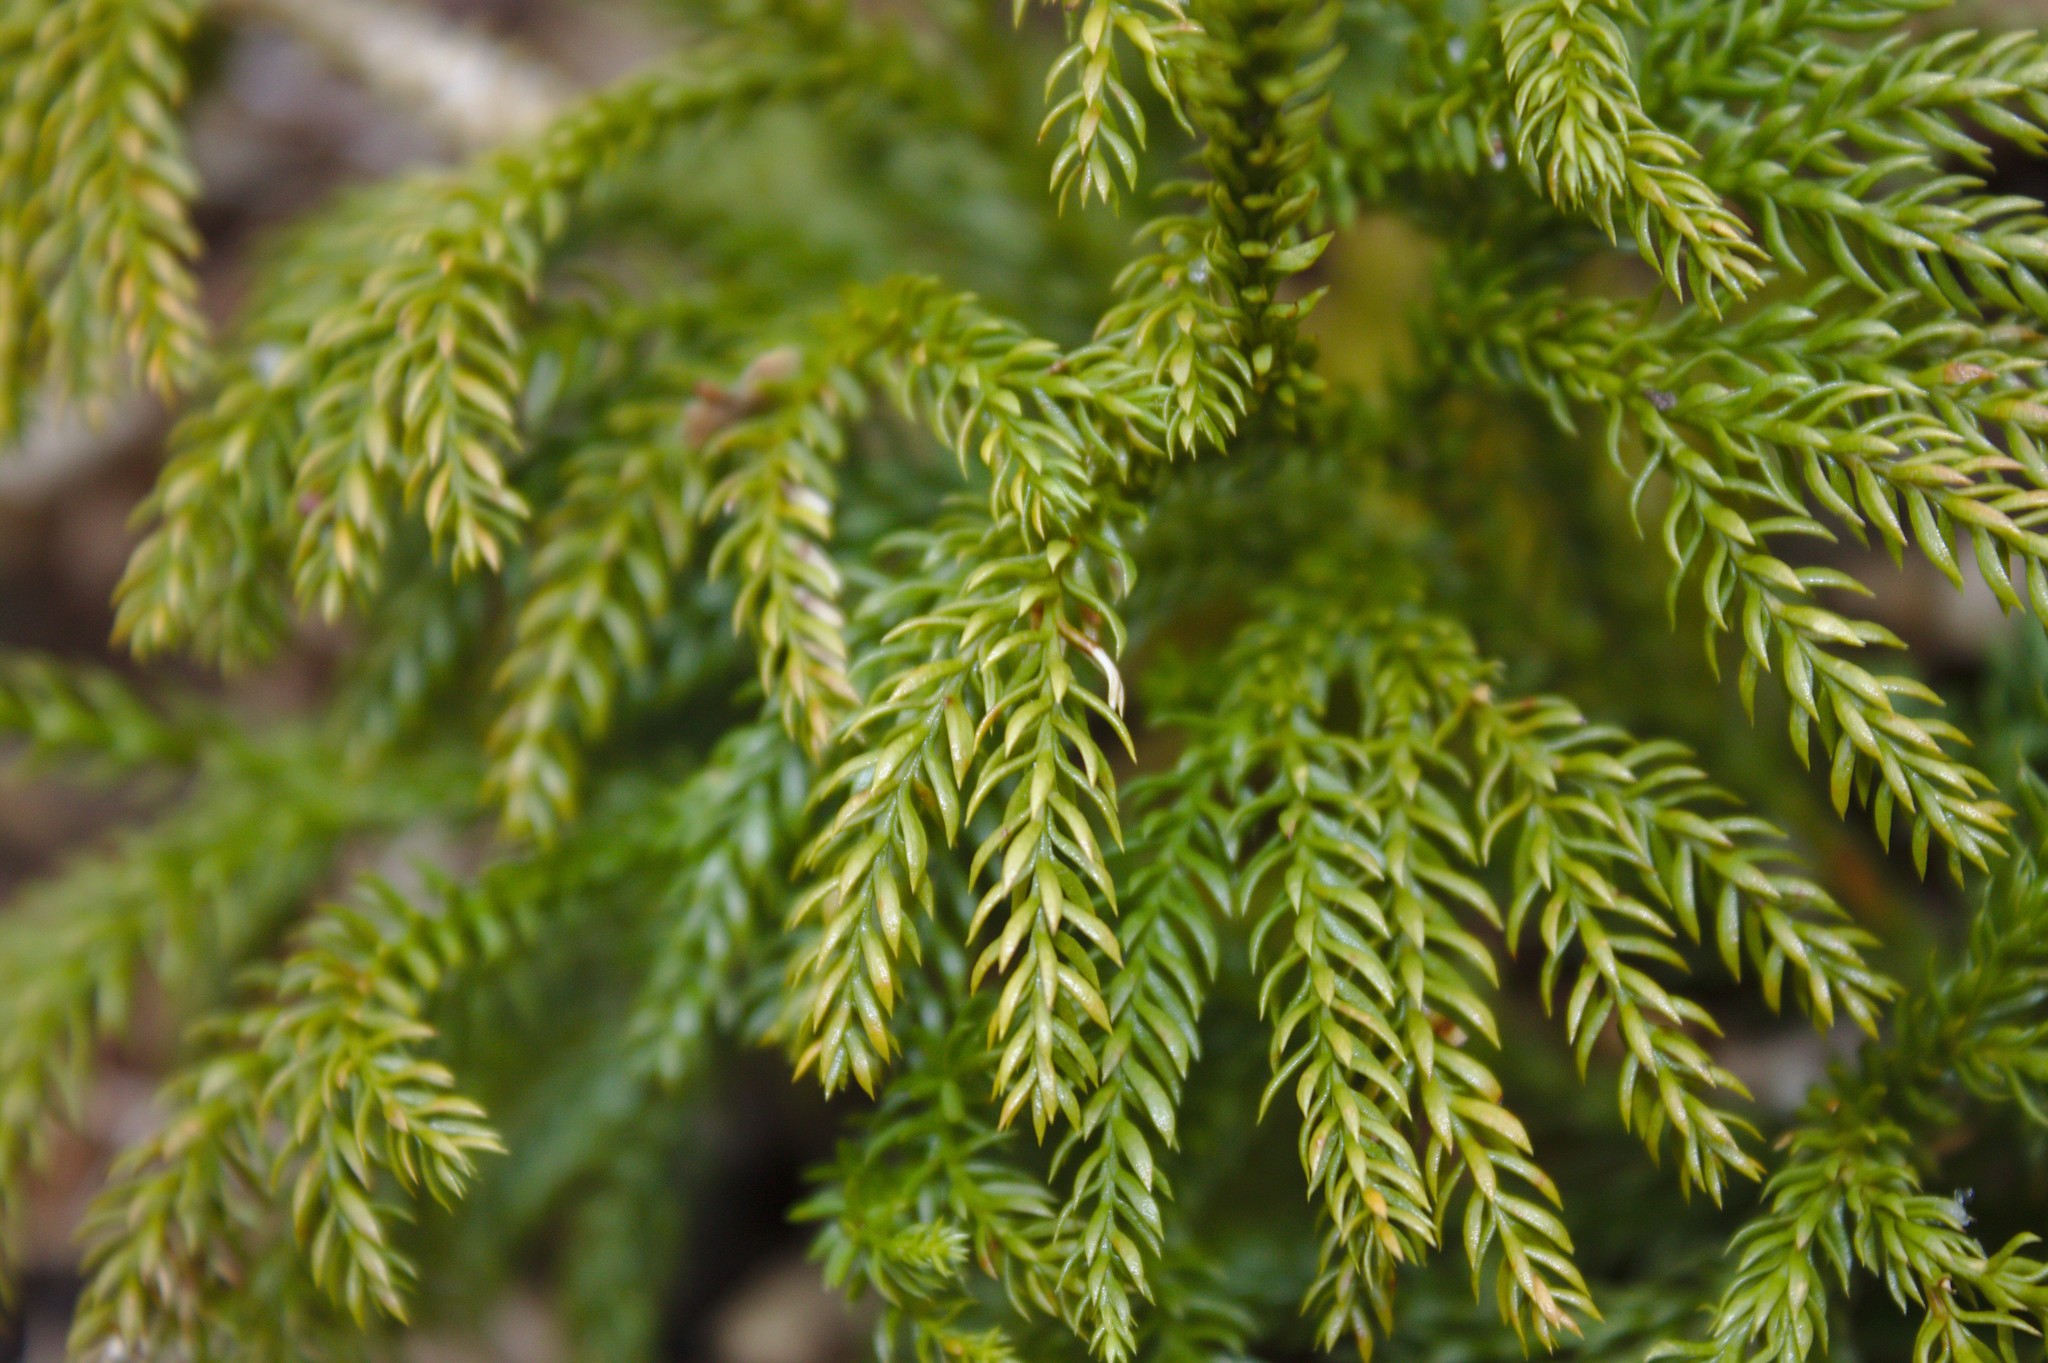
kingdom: Plantae
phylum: Tracheophyta
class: Lycopodiopsida
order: Lycopodiales
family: Lycopodiaceae
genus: Dendrolycopodium
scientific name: Dendrolycopodium hickeyi
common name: Hickey's clubmoss
